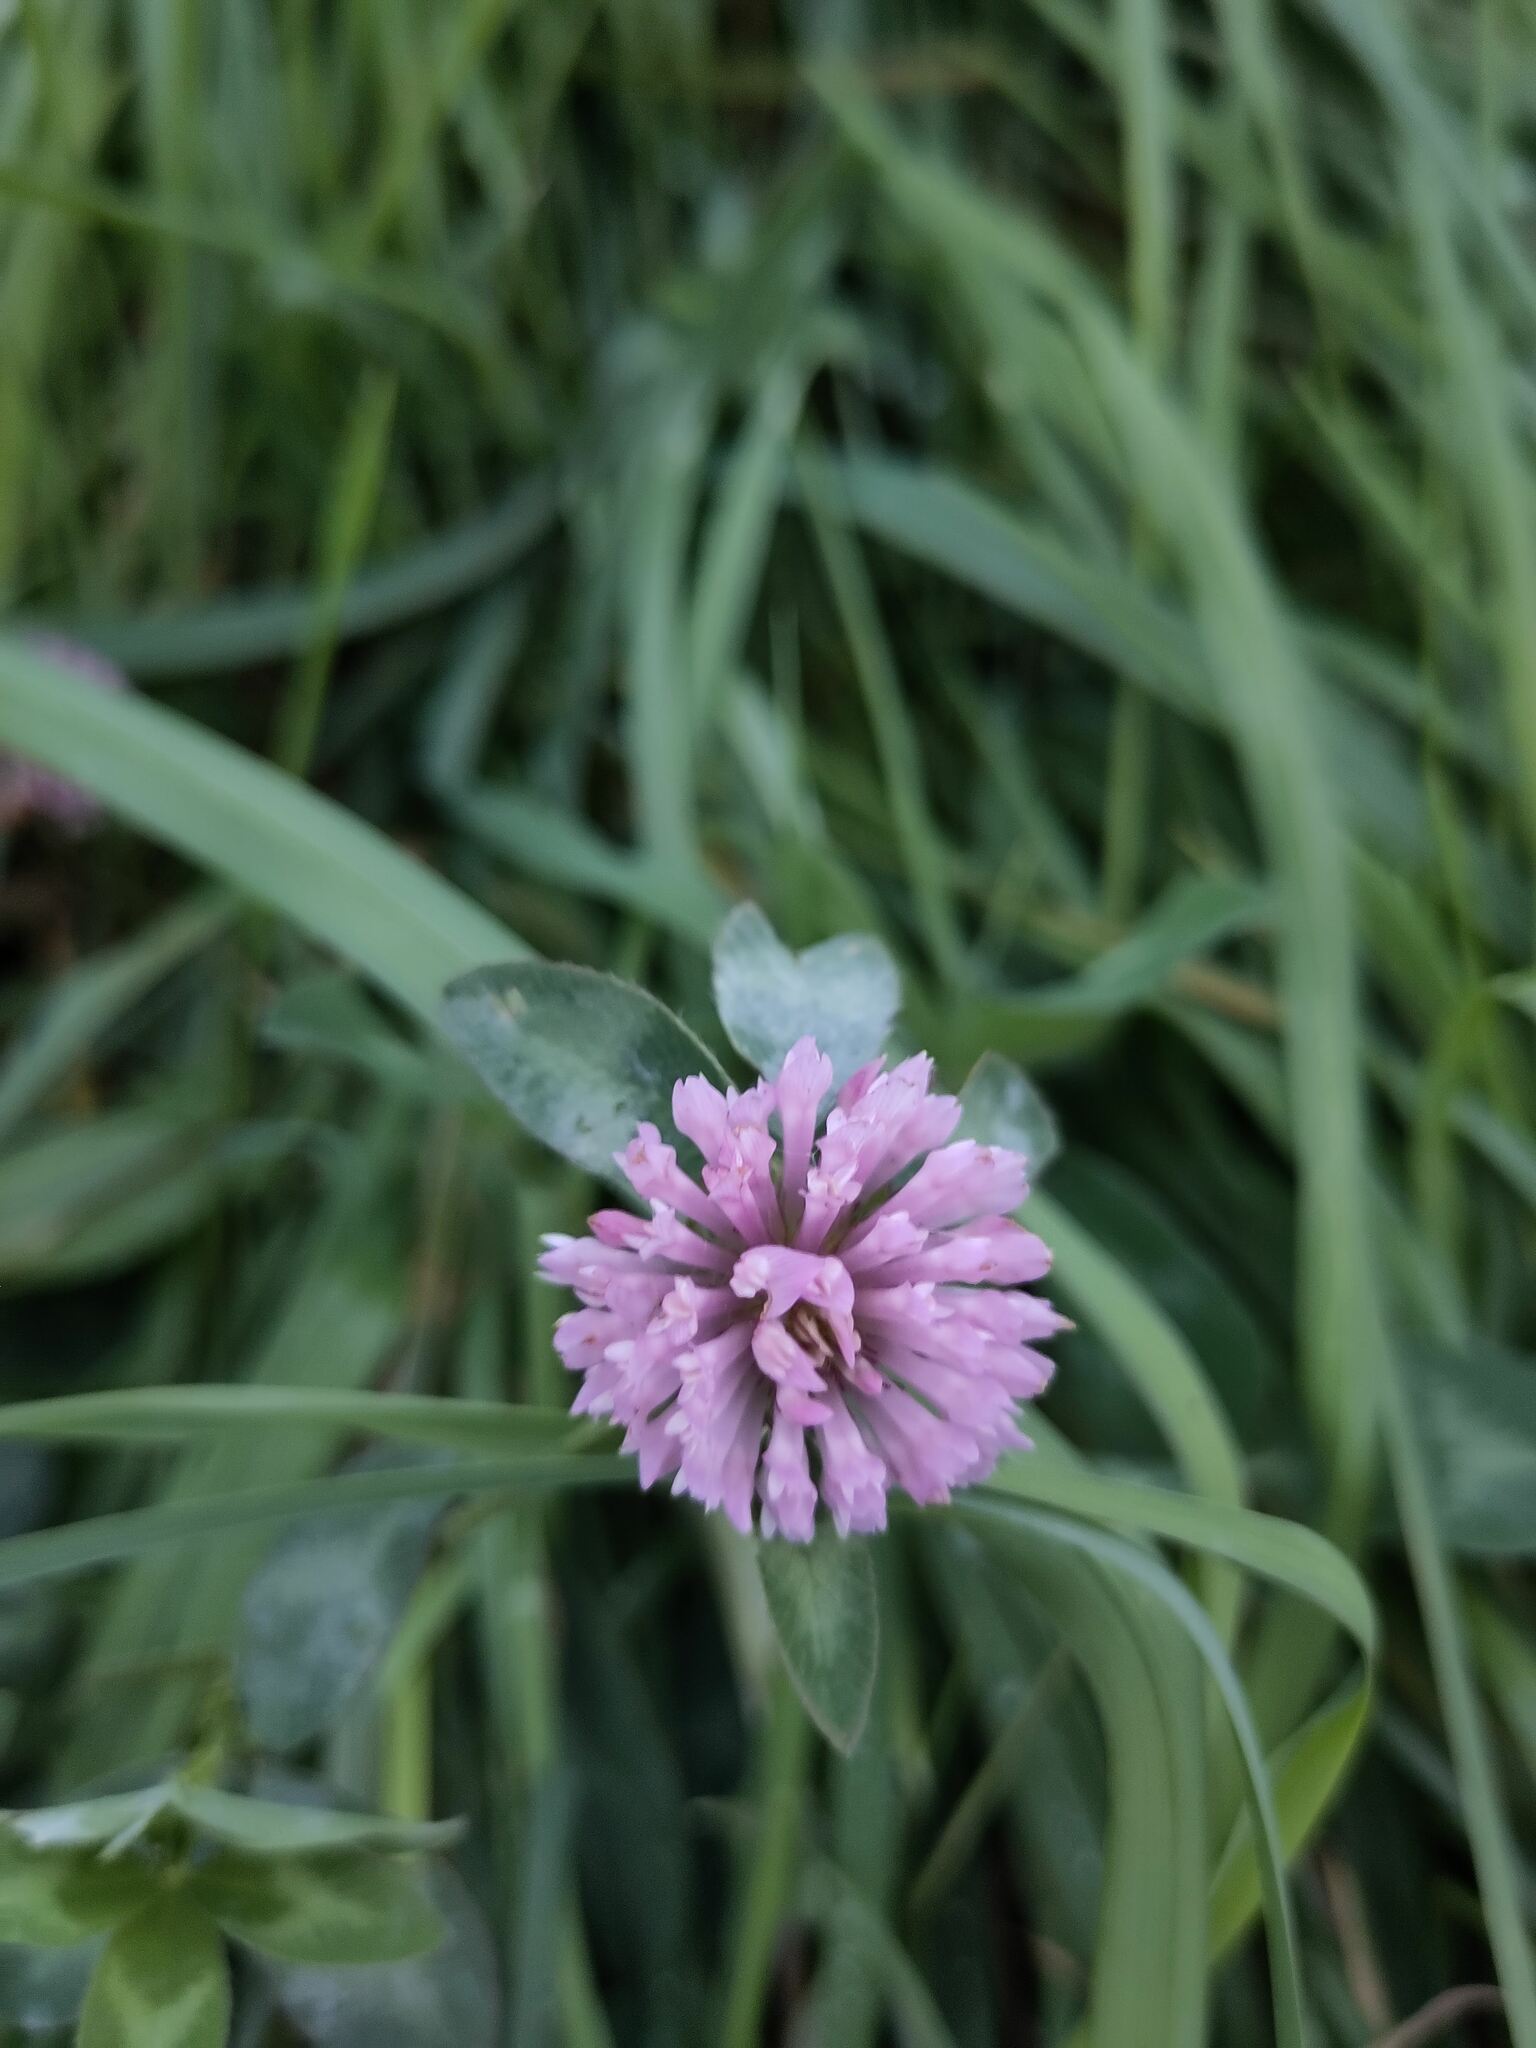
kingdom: Plantae
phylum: Tracheophyta
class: Magnoliopsida
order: Fabales
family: Fabaceae
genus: Trifolium
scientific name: Trifolium pratense
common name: Red clover
